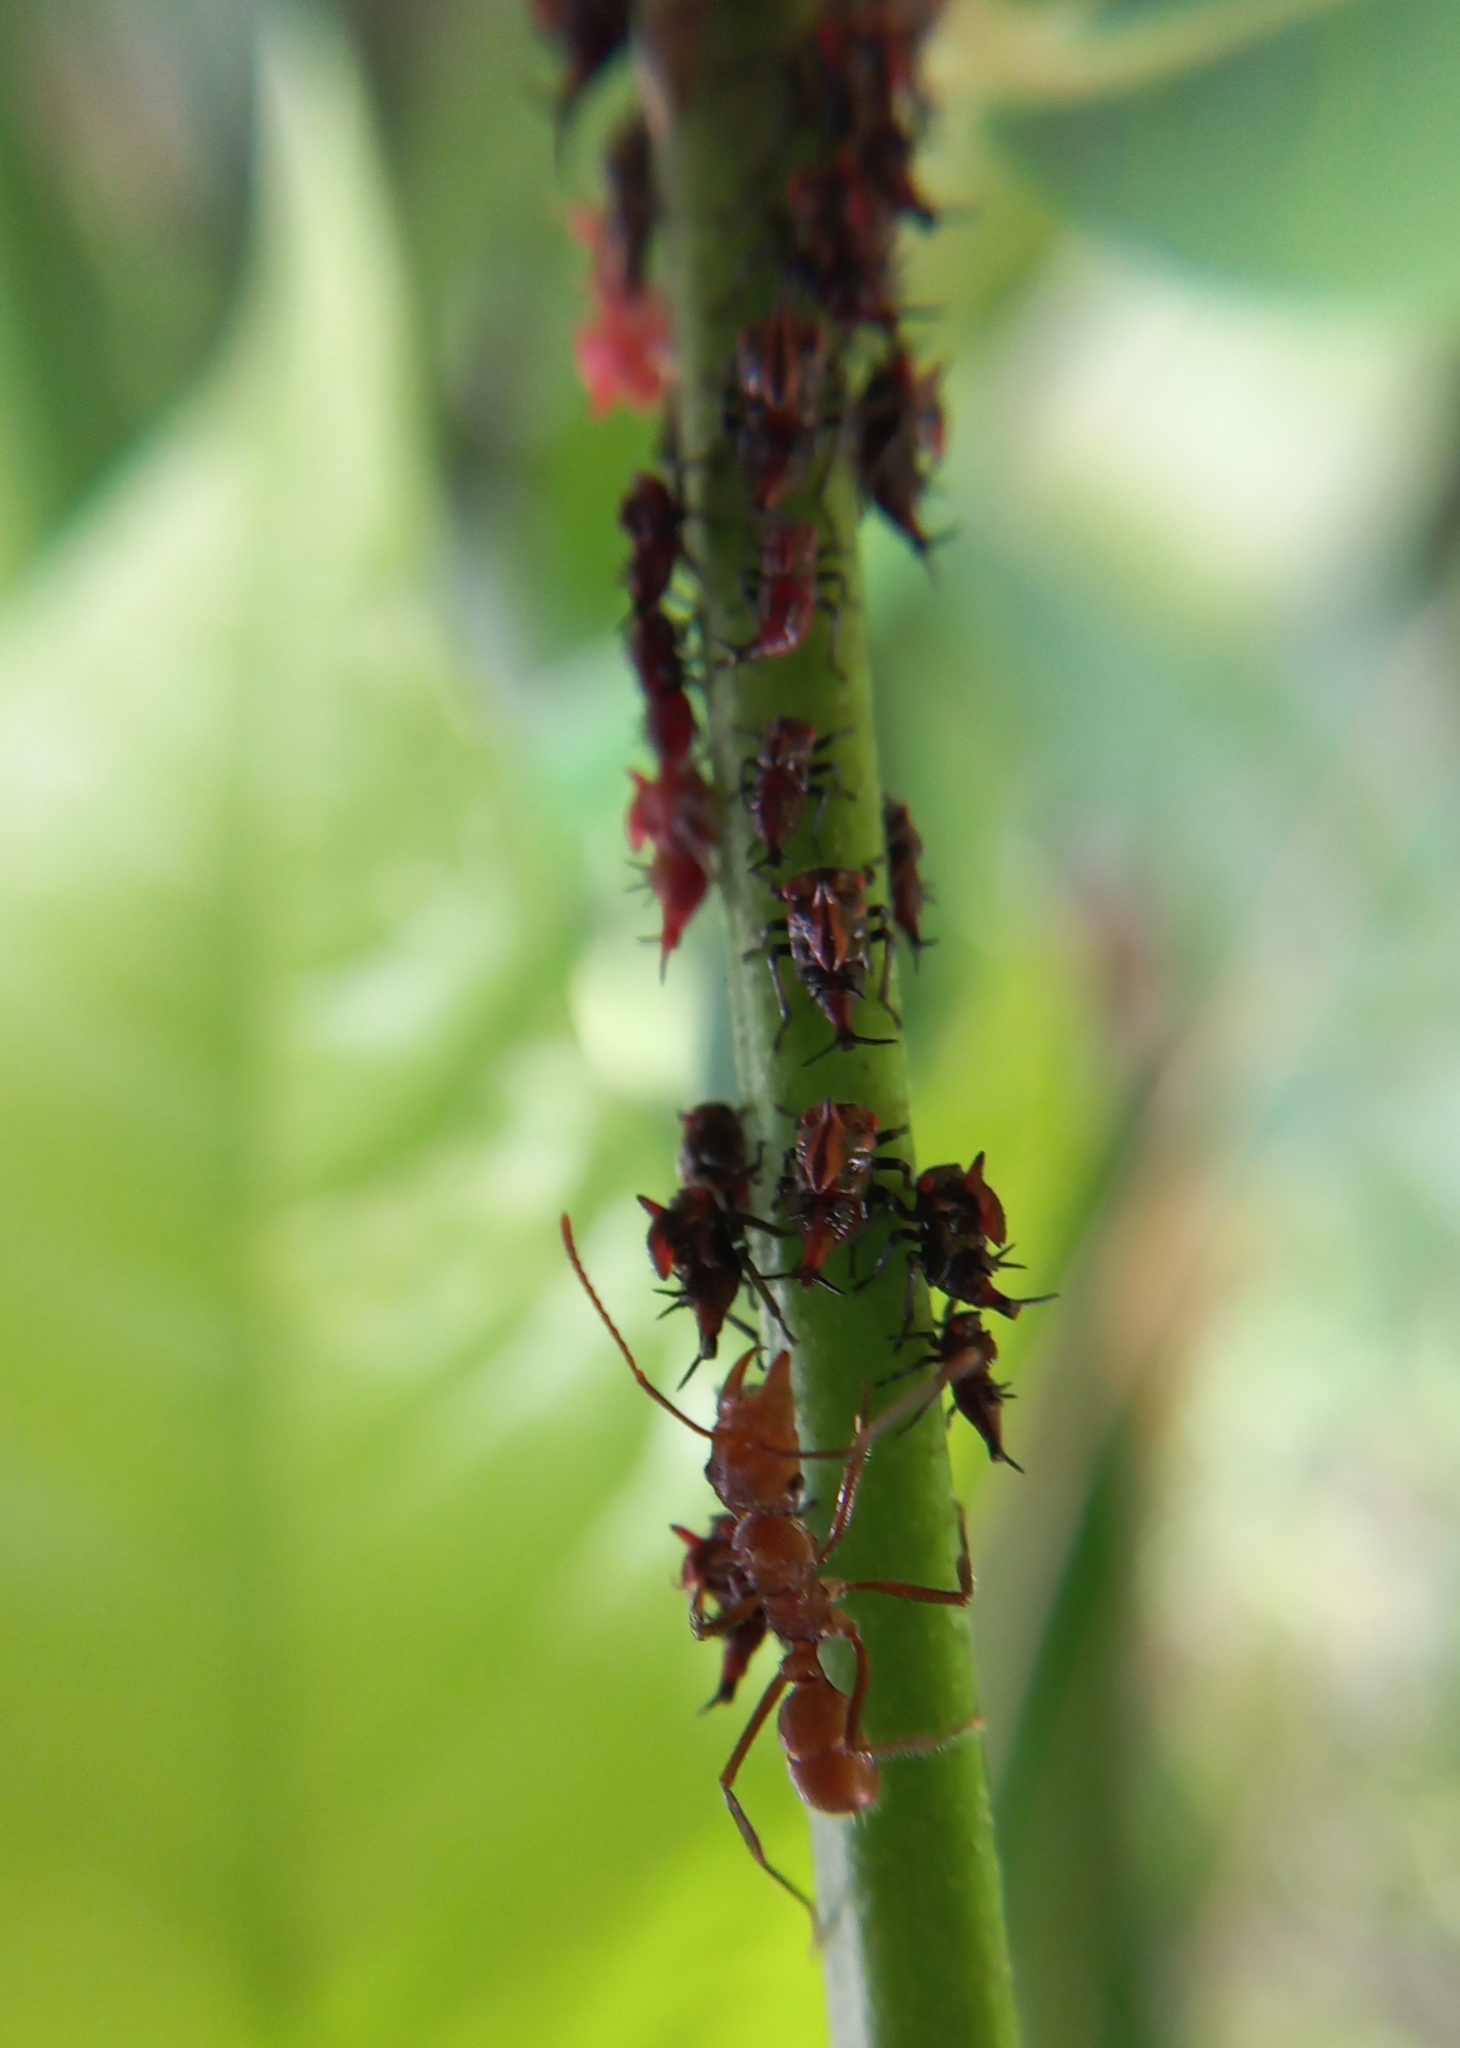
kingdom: Animalia
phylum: Arthropoda
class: Insecta
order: Hymenoptera
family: Formicidae
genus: Ectatomma
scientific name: Ectatomma tuberculatum
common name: Ant
